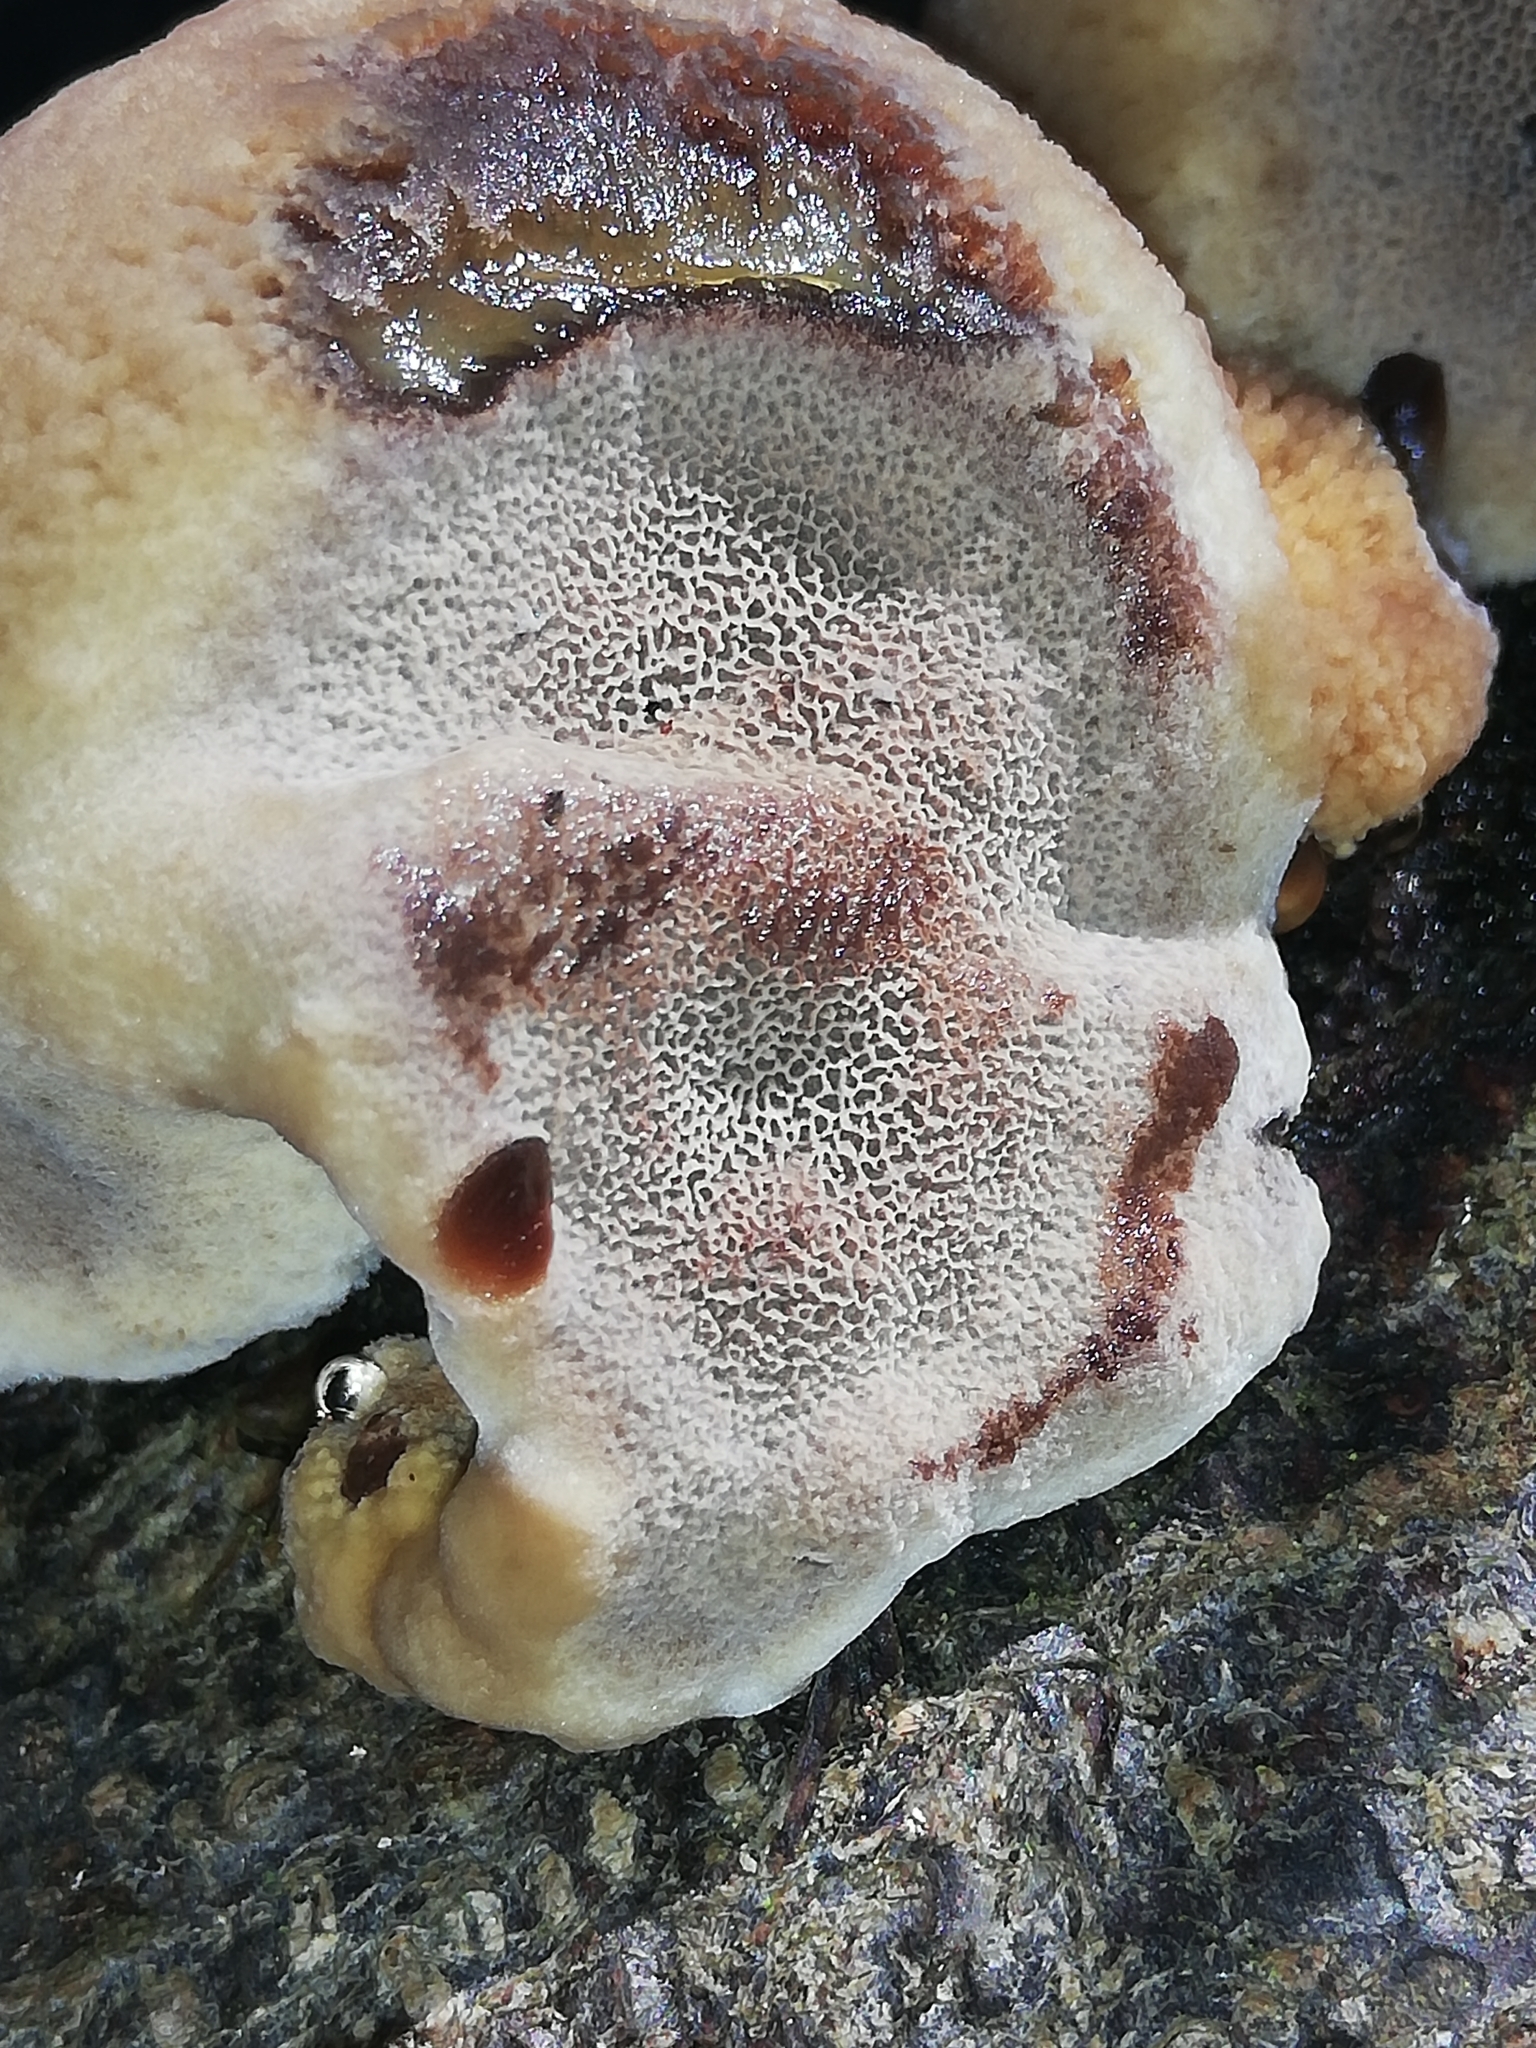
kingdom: Fungi
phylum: Basidiomycota
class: Agaricomycetes
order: Hymenochaetales
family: Hymenochaetaceae
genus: Inonotus
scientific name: Inonotus cuticularis
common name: Clustered bracket
